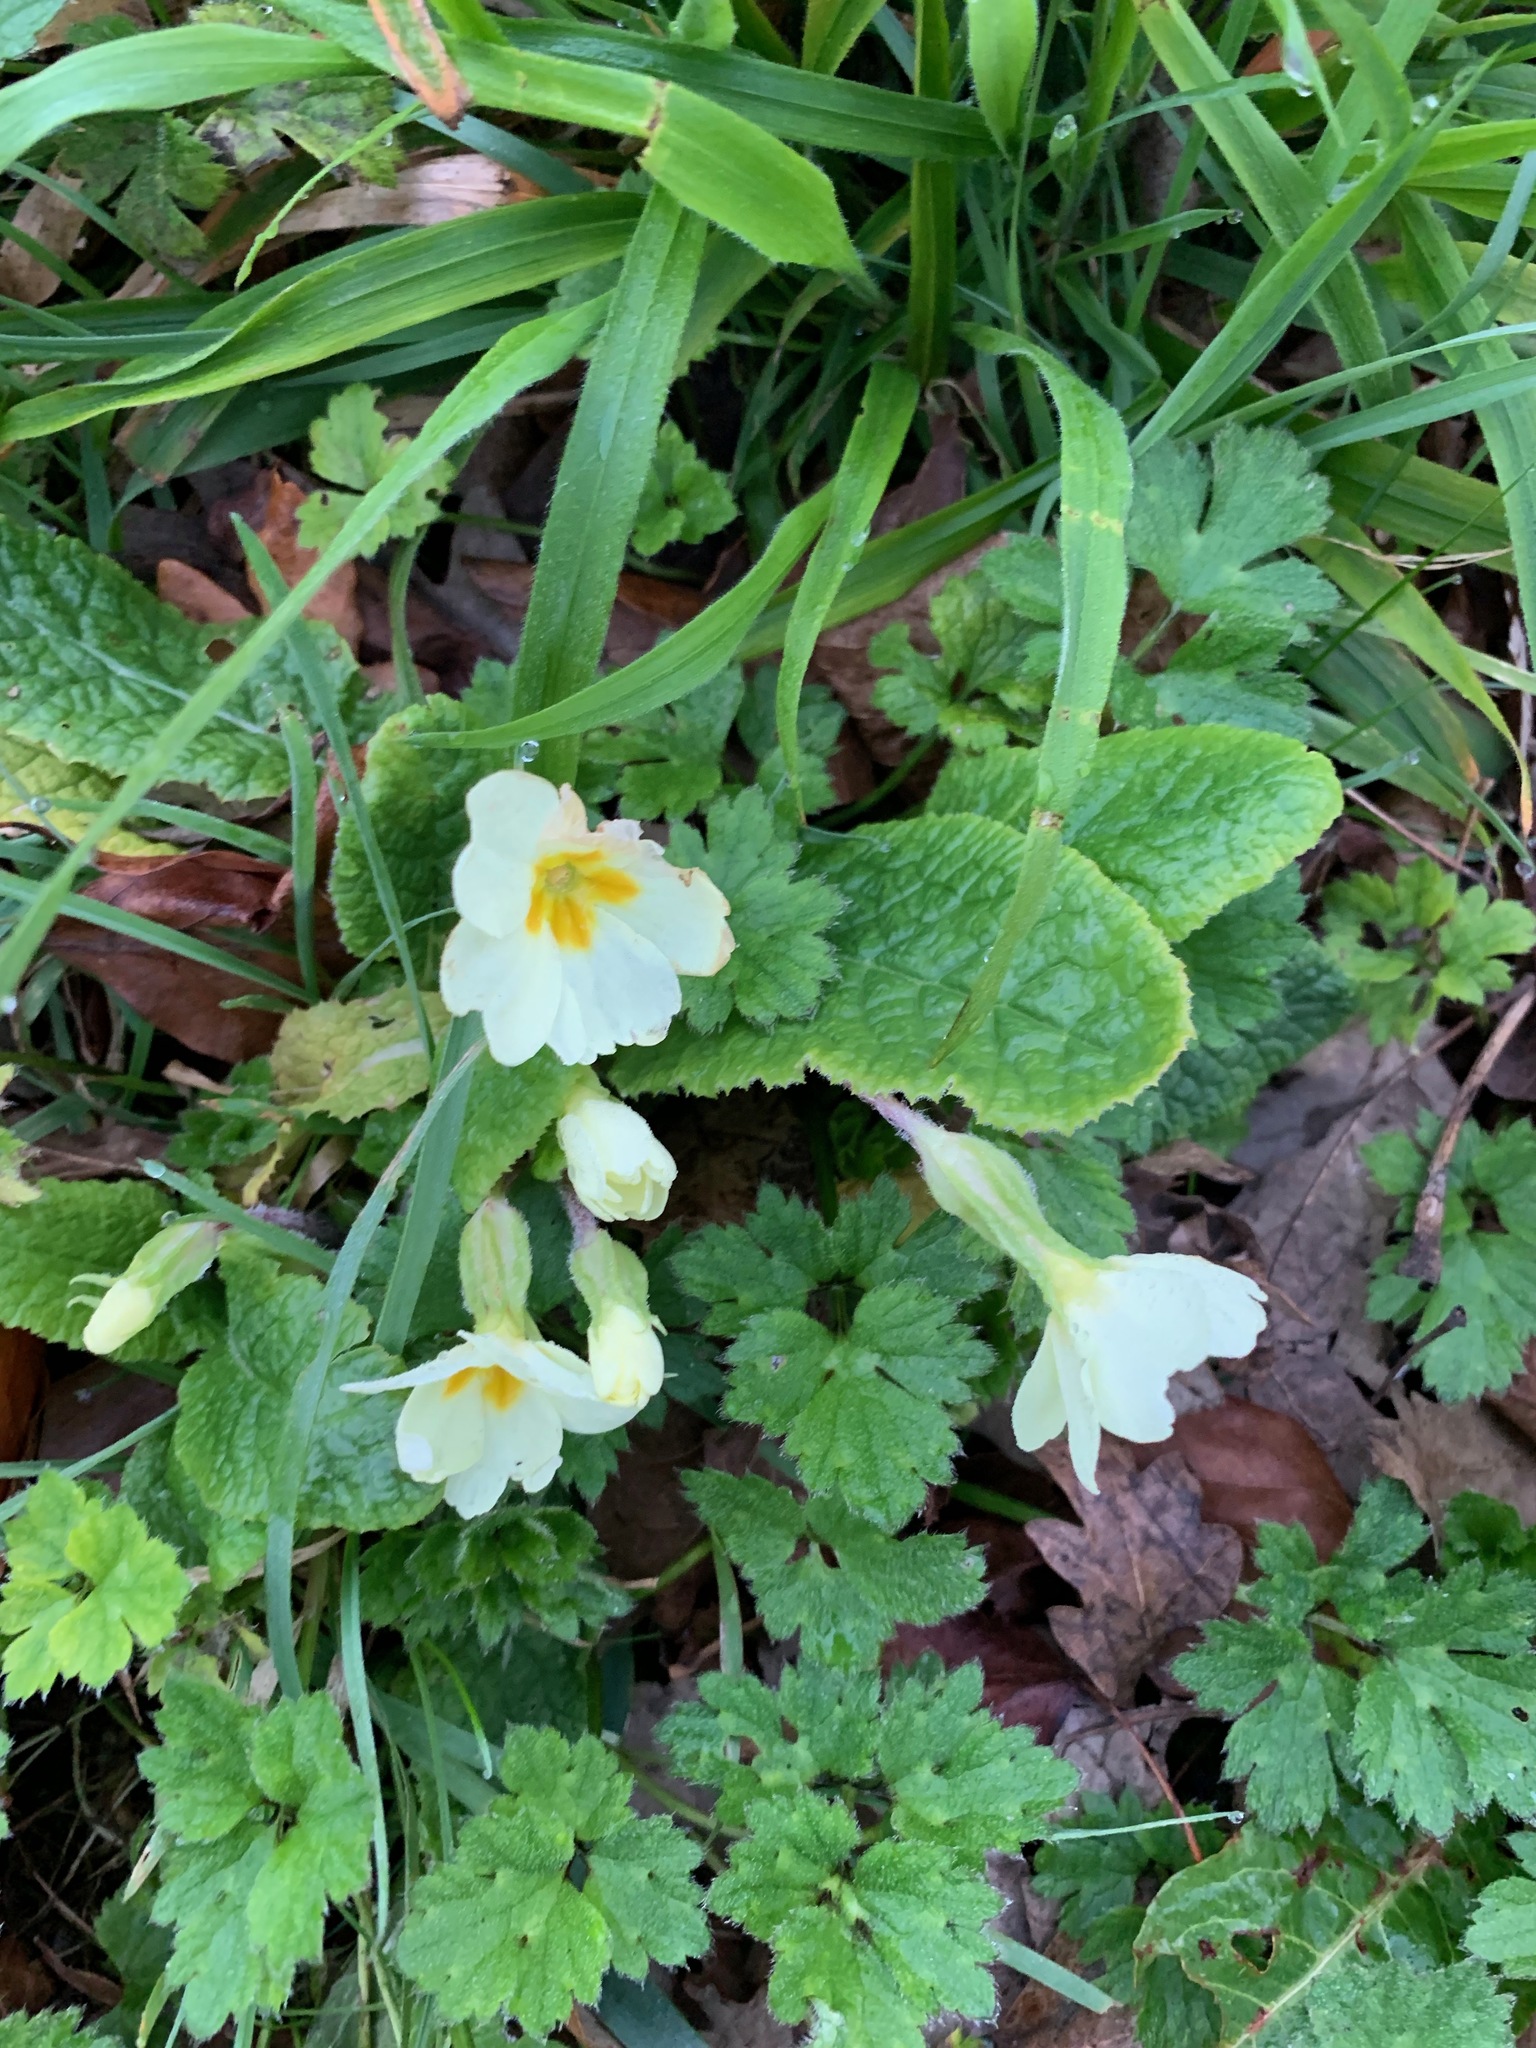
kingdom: Plantae
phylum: Tracheophyta
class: Magnoliopsida
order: Ericales
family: Primulaceae
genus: Primula
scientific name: Primula vulgaris
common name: Primrose
